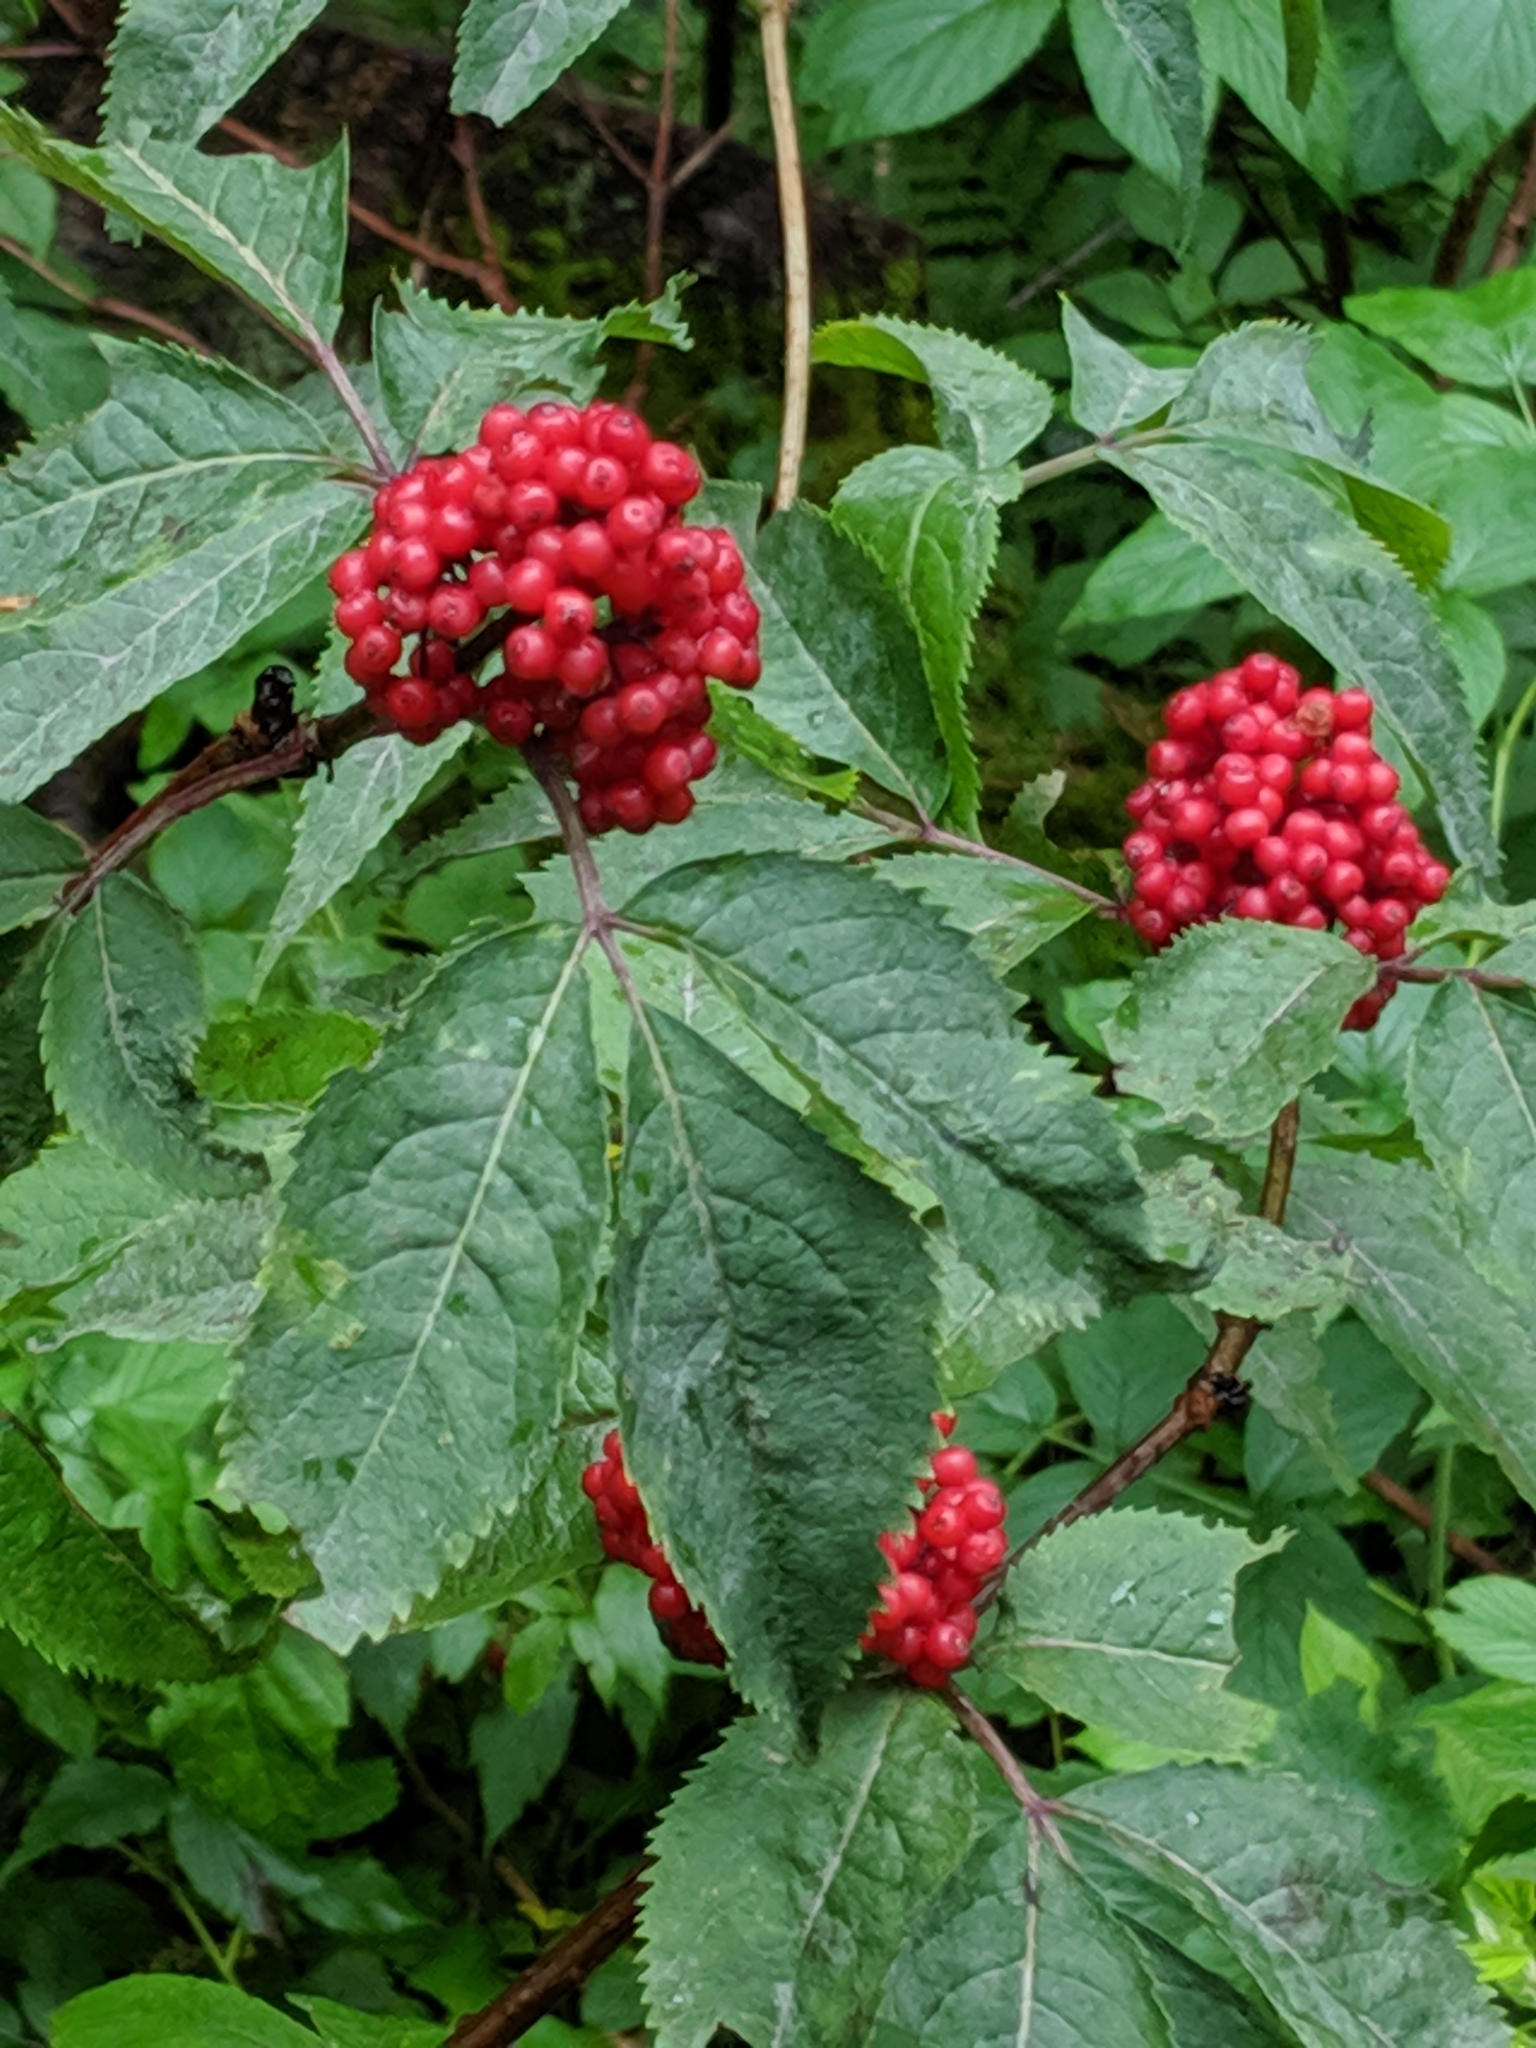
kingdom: Plantae
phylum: Tracheophyta
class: Magnoliopsida
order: Dipsacales
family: Viburnaceae
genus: Sambucus
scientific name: Sambucus racemosa
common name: Red-berried elder
